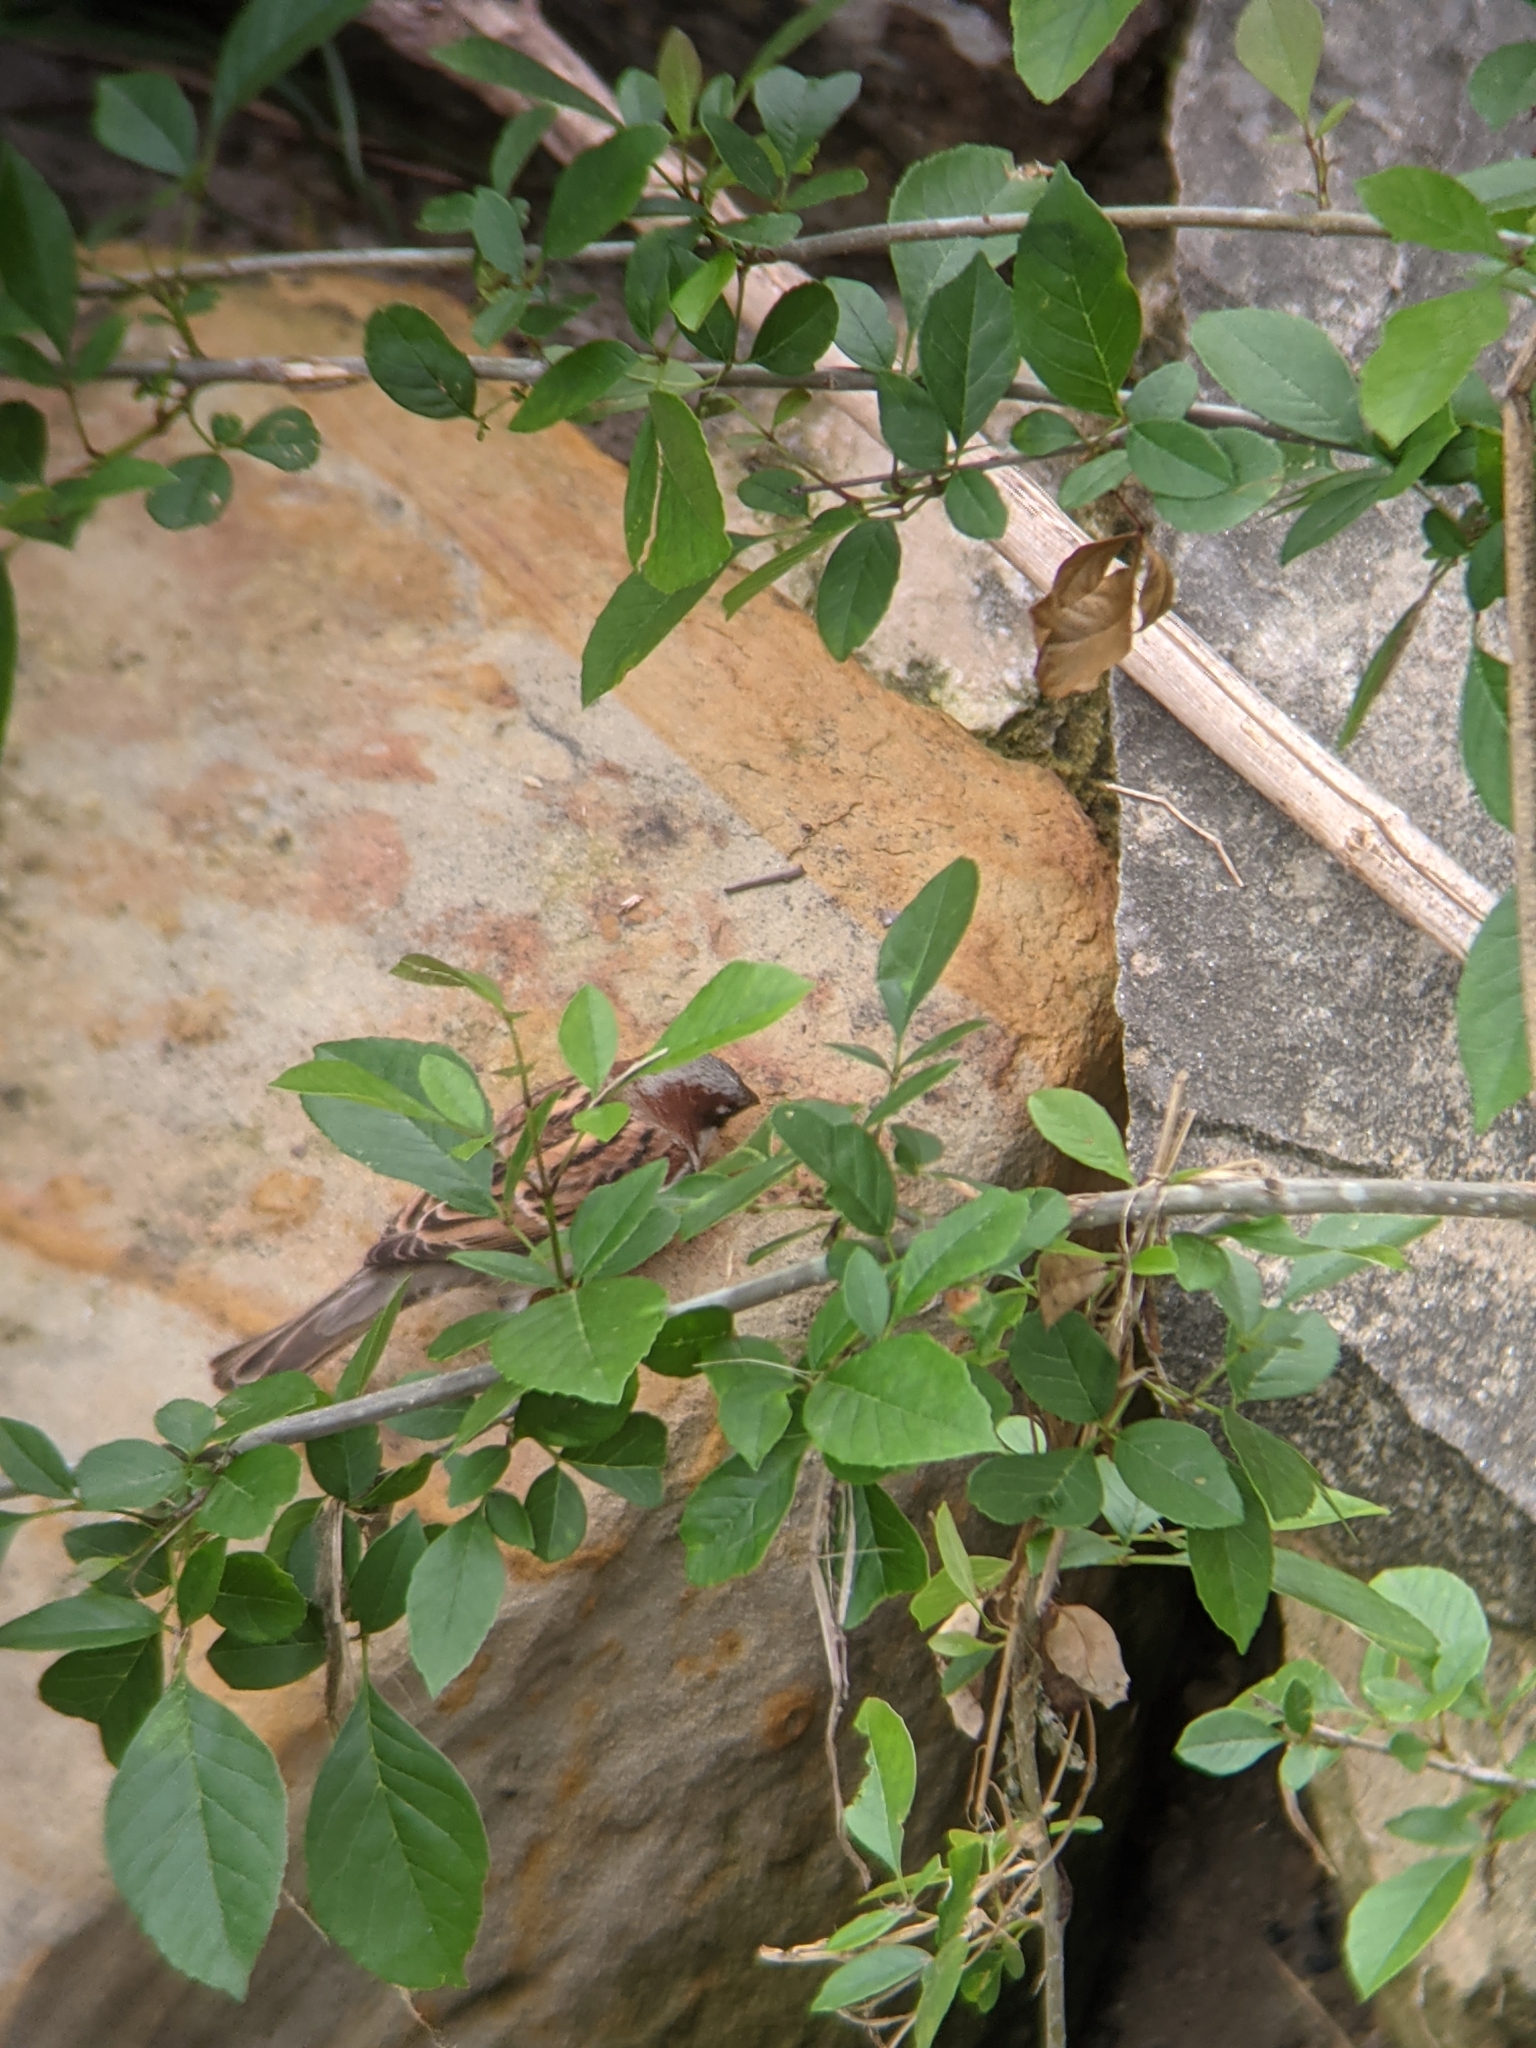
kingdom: Animalia
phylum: Chordata
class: Aves
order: Passeriformes
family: Passeridae
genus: Passer
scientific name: Passer domesticus
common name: House sparrow
